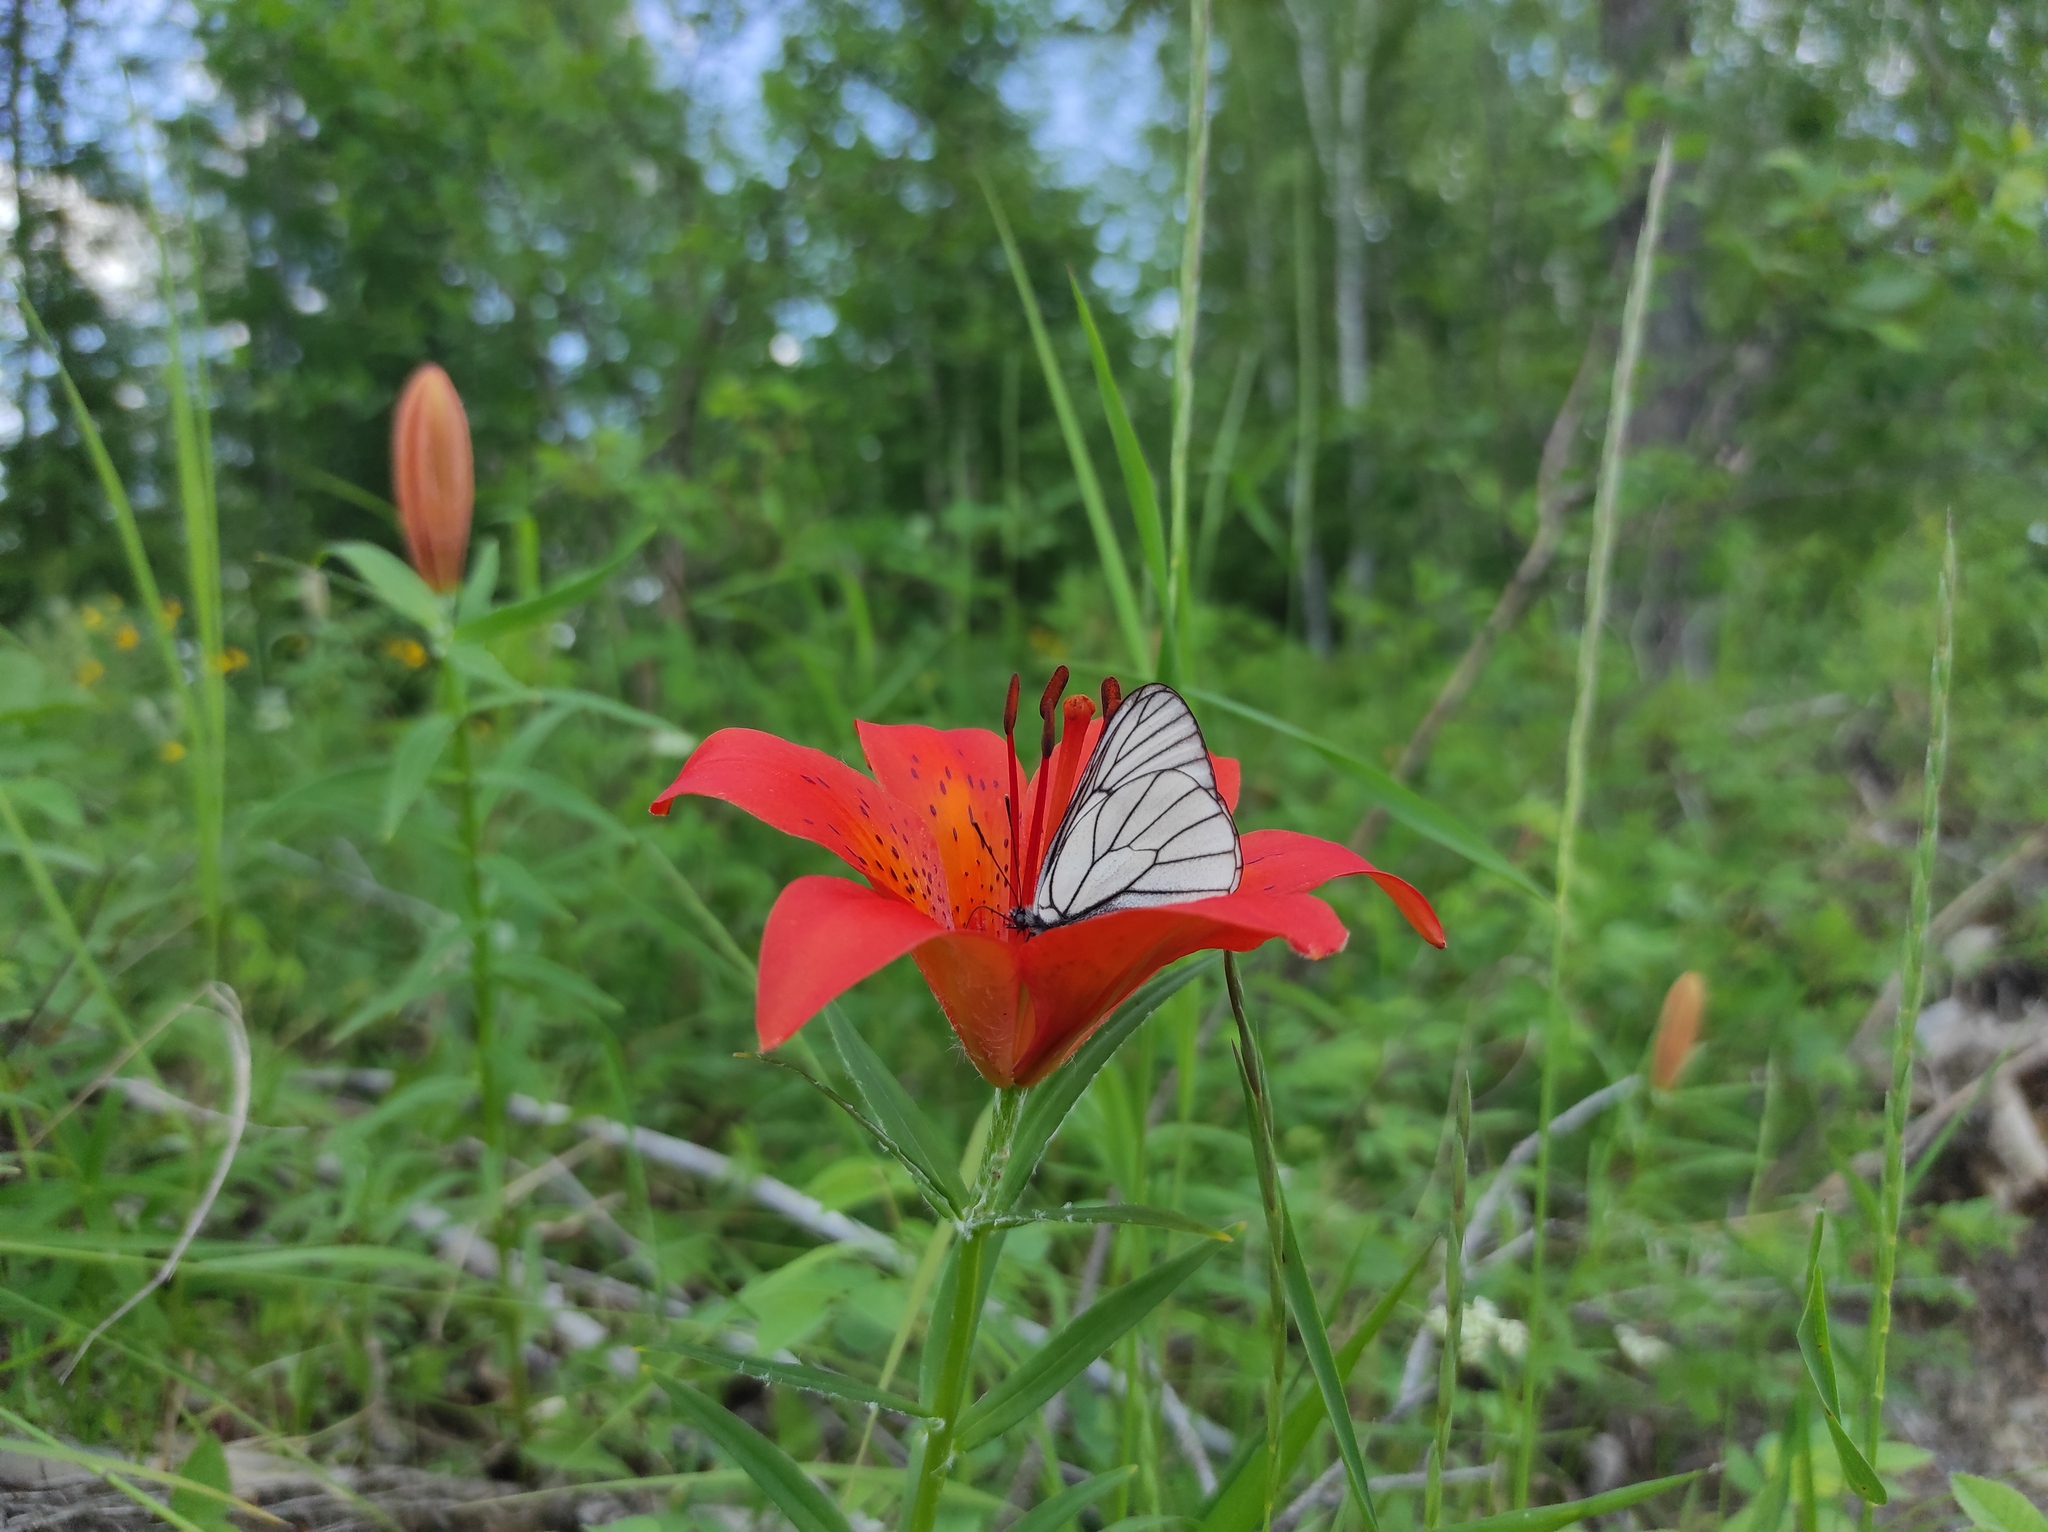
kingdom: Plantae
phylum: Tracheophyta
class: Liliopsida
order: Liliales
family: Liliaceae
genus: Lilium
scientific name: Lilium pensylvanicum
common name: Candlestick lily
